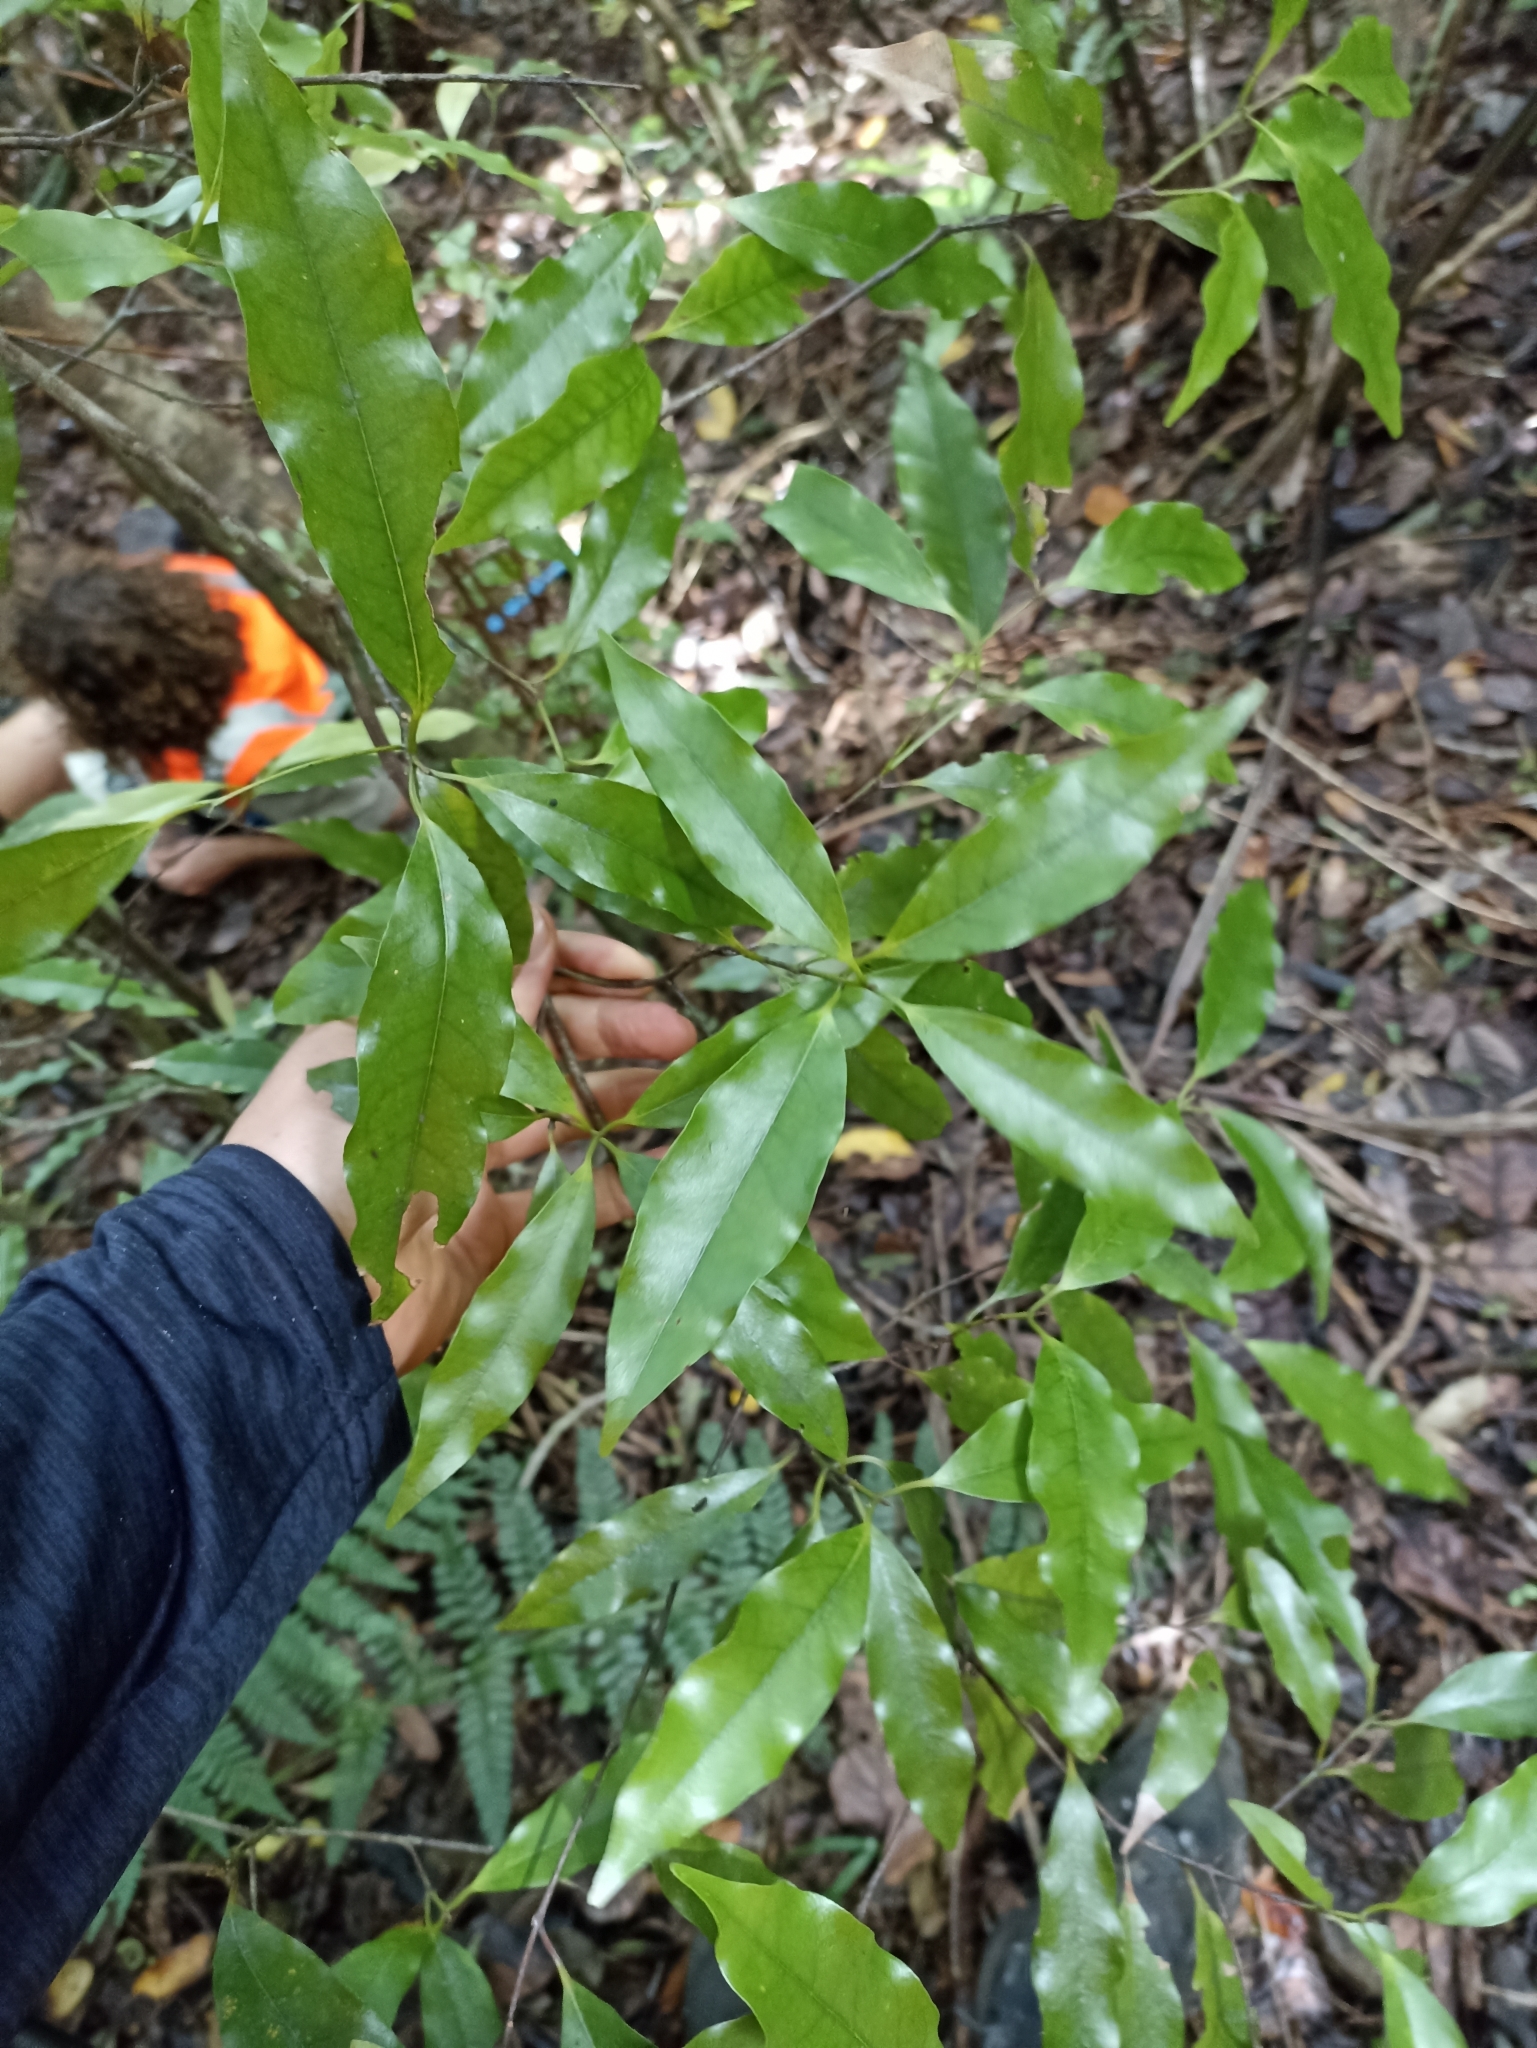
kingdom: Plantae
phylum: Tracheophyta
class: Magnoliopsida
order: Laurales
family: Lauraceae
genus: Beilschmiedia
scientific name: Beilschmiedia tawa
